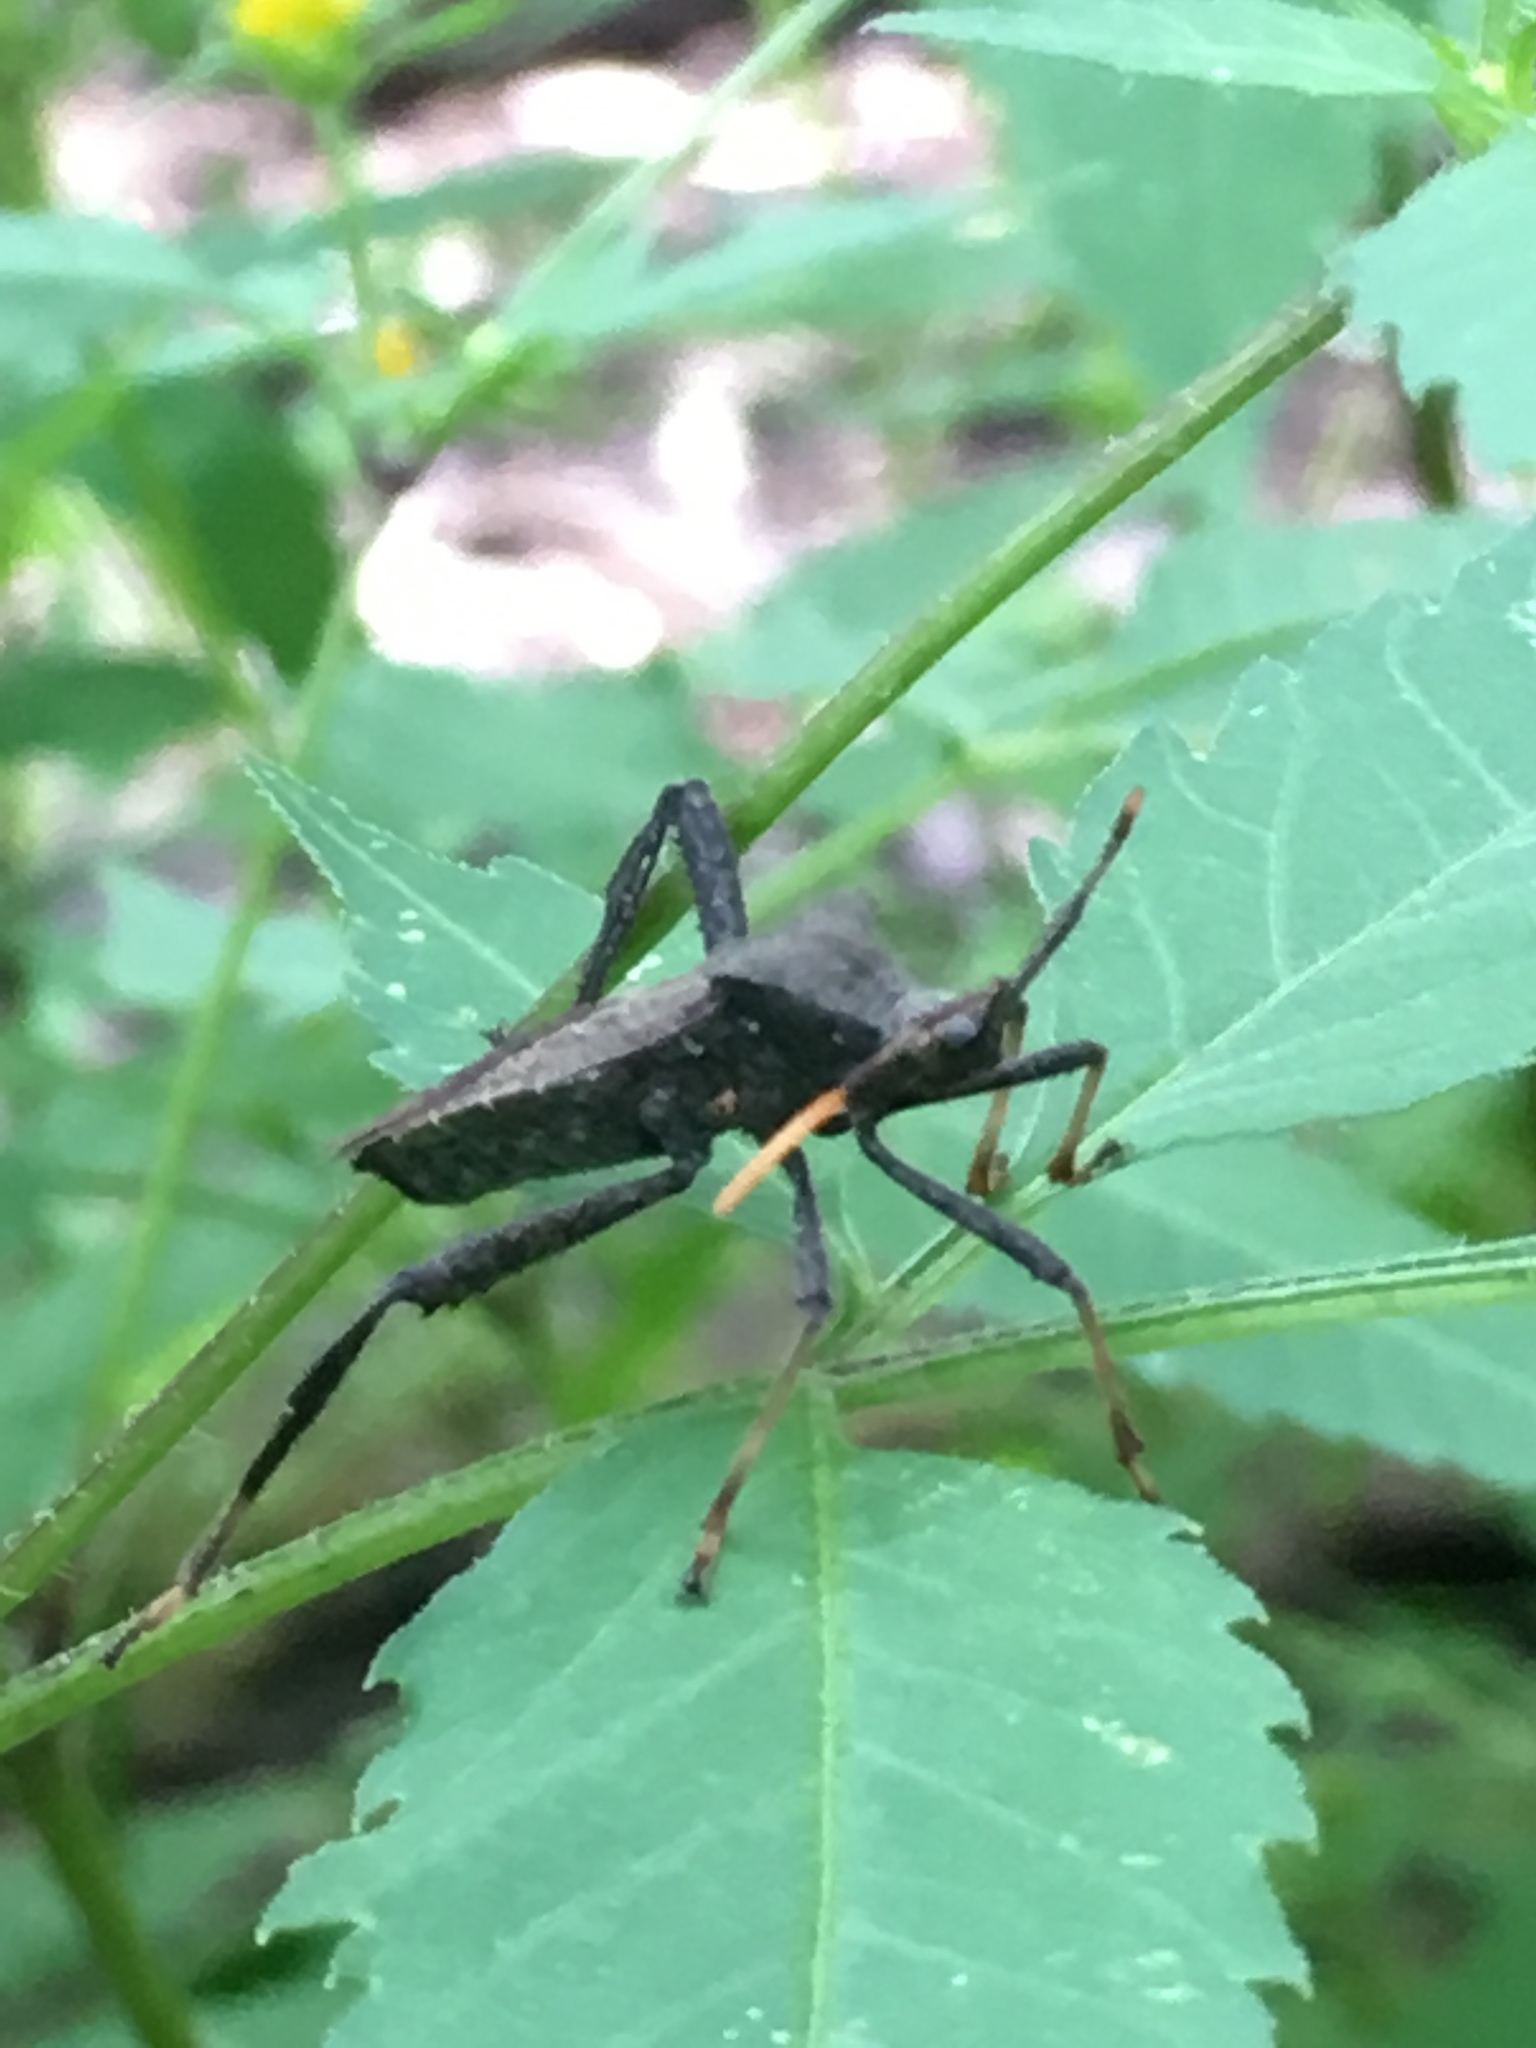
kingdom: Animalia
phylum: Arthropoda
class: Insecta
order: Hemiptera
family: Coreidae
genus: Acanthocephala
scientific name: Acanthocephala terminalis
